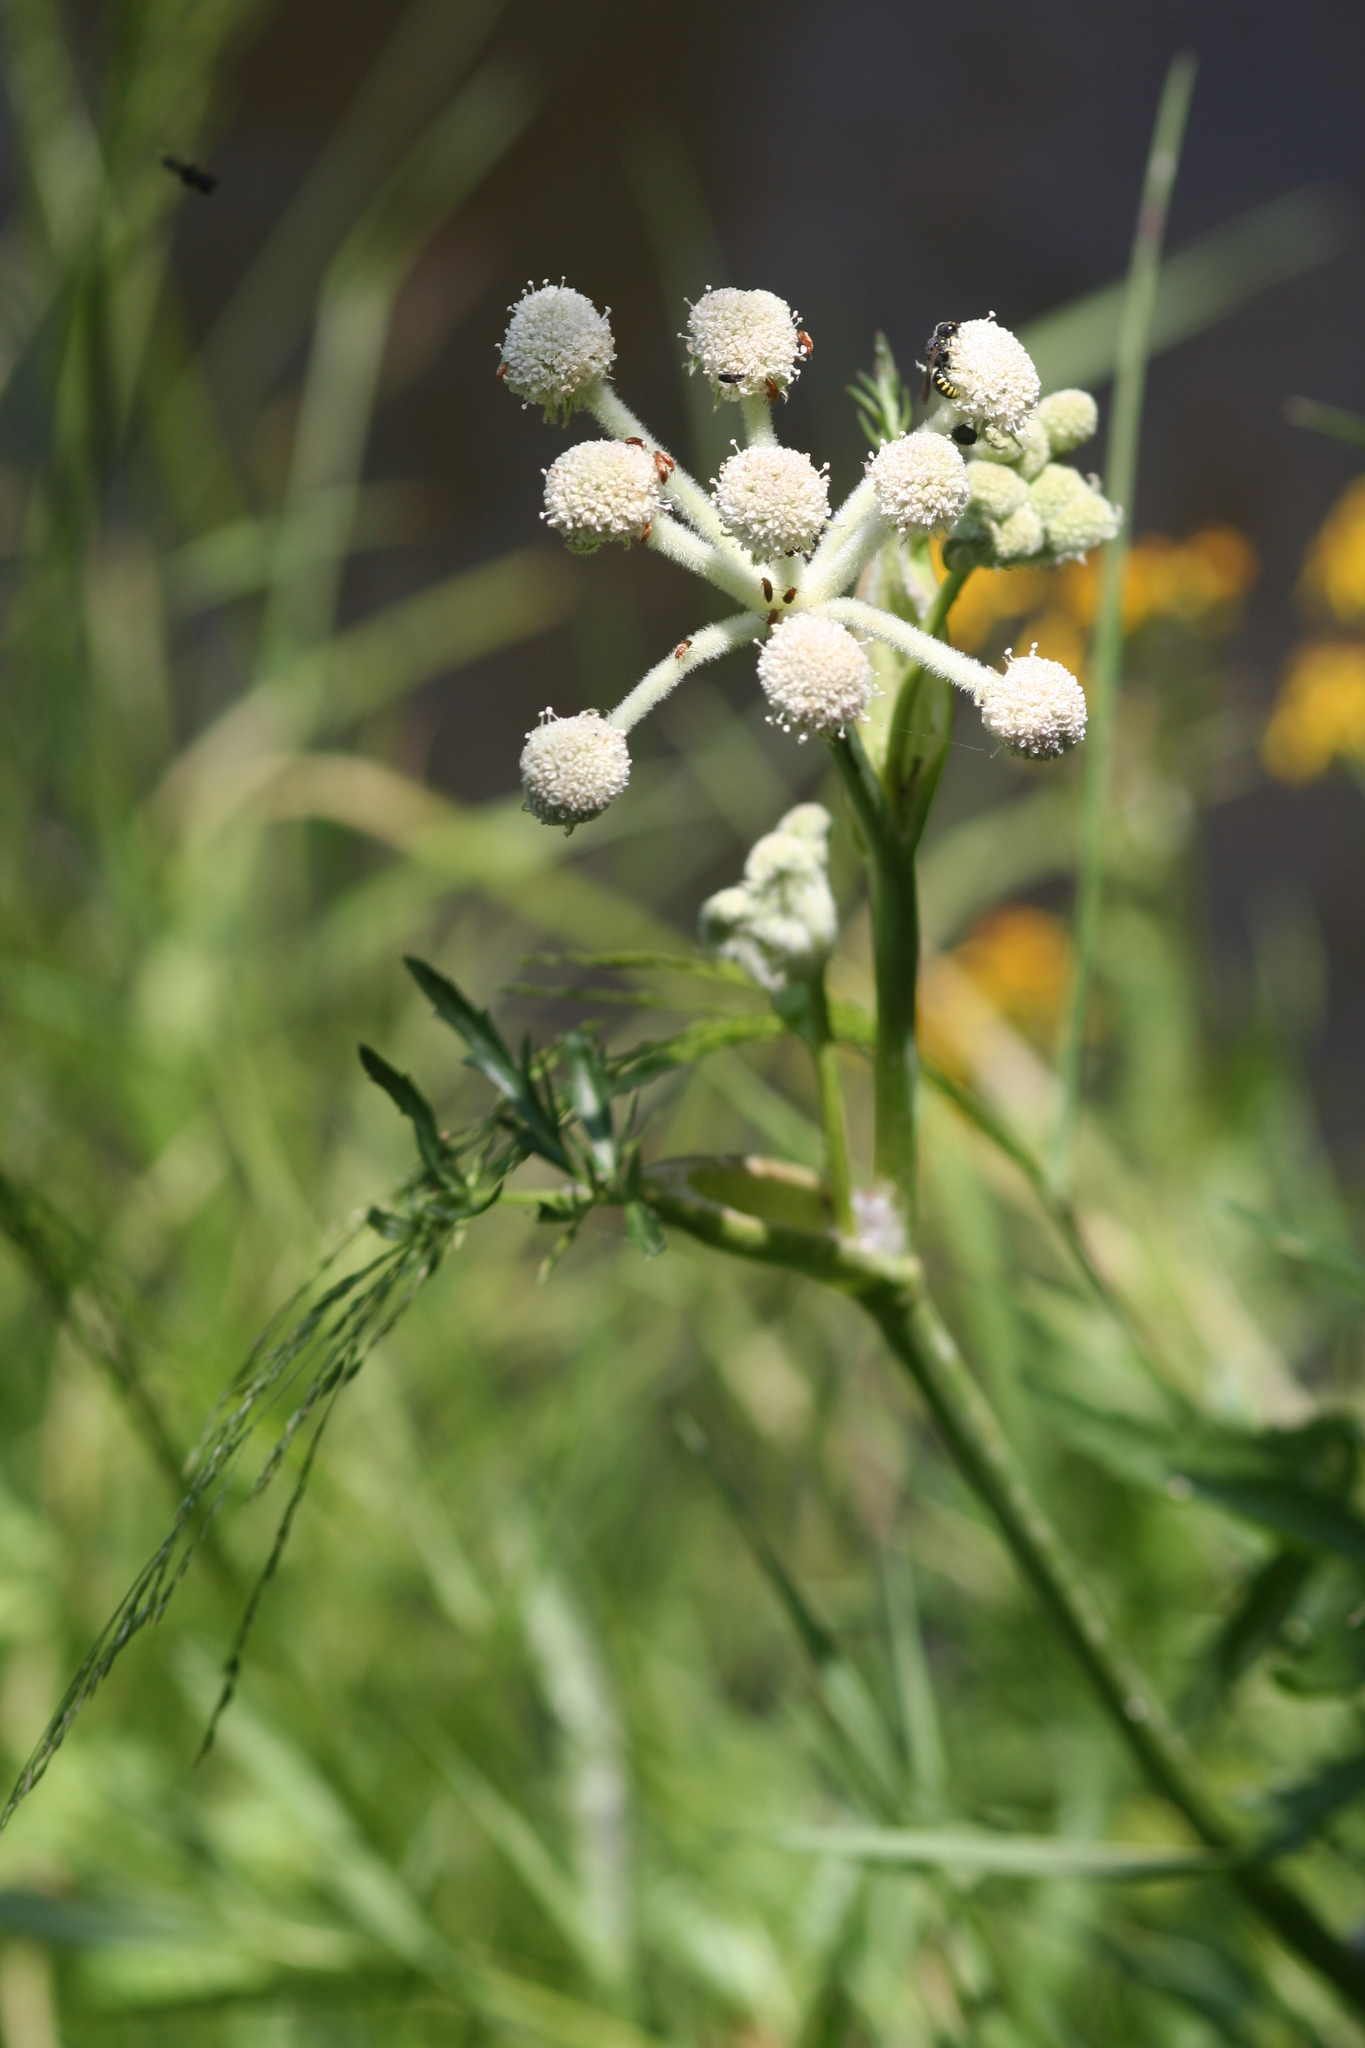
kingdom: Plantae
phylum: Tracheophyta
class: Magnoliopsida
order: Apiales
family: Apiaceae
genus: Angelica
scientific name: Angelica capitellata
